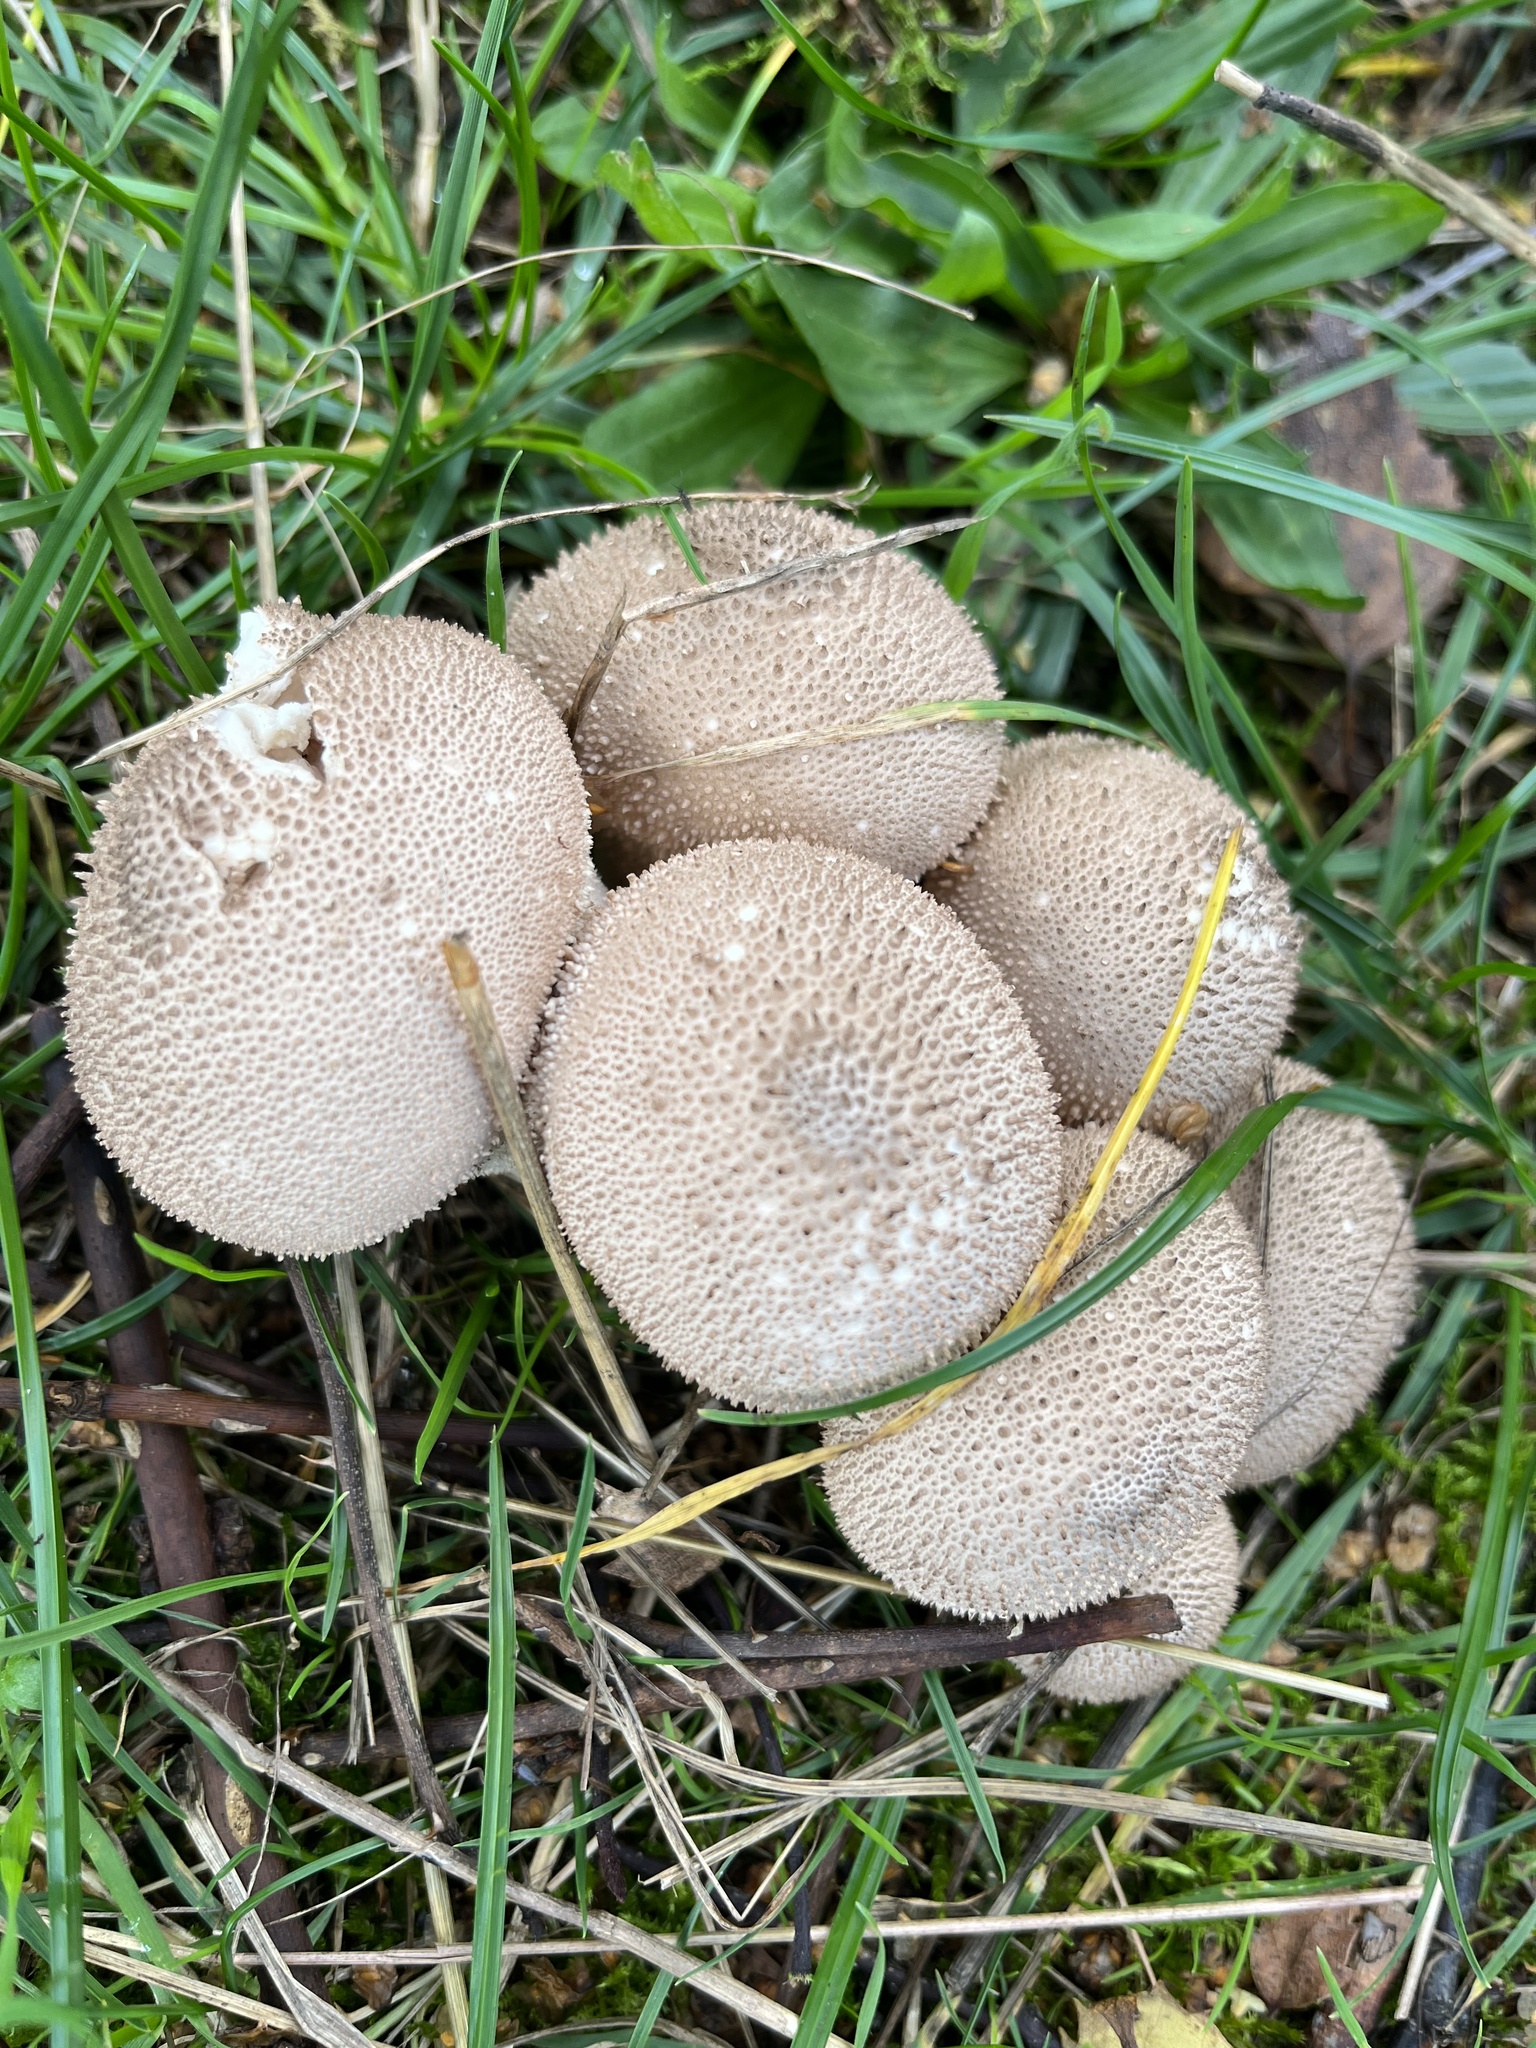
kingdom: Fungi
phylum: Basidiomycota
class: Agaricomycetes
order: Agaricales
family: Lycoperdaceae
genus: Lycoperdon
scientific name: Lycoperdon perlatum
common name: Common puffball
